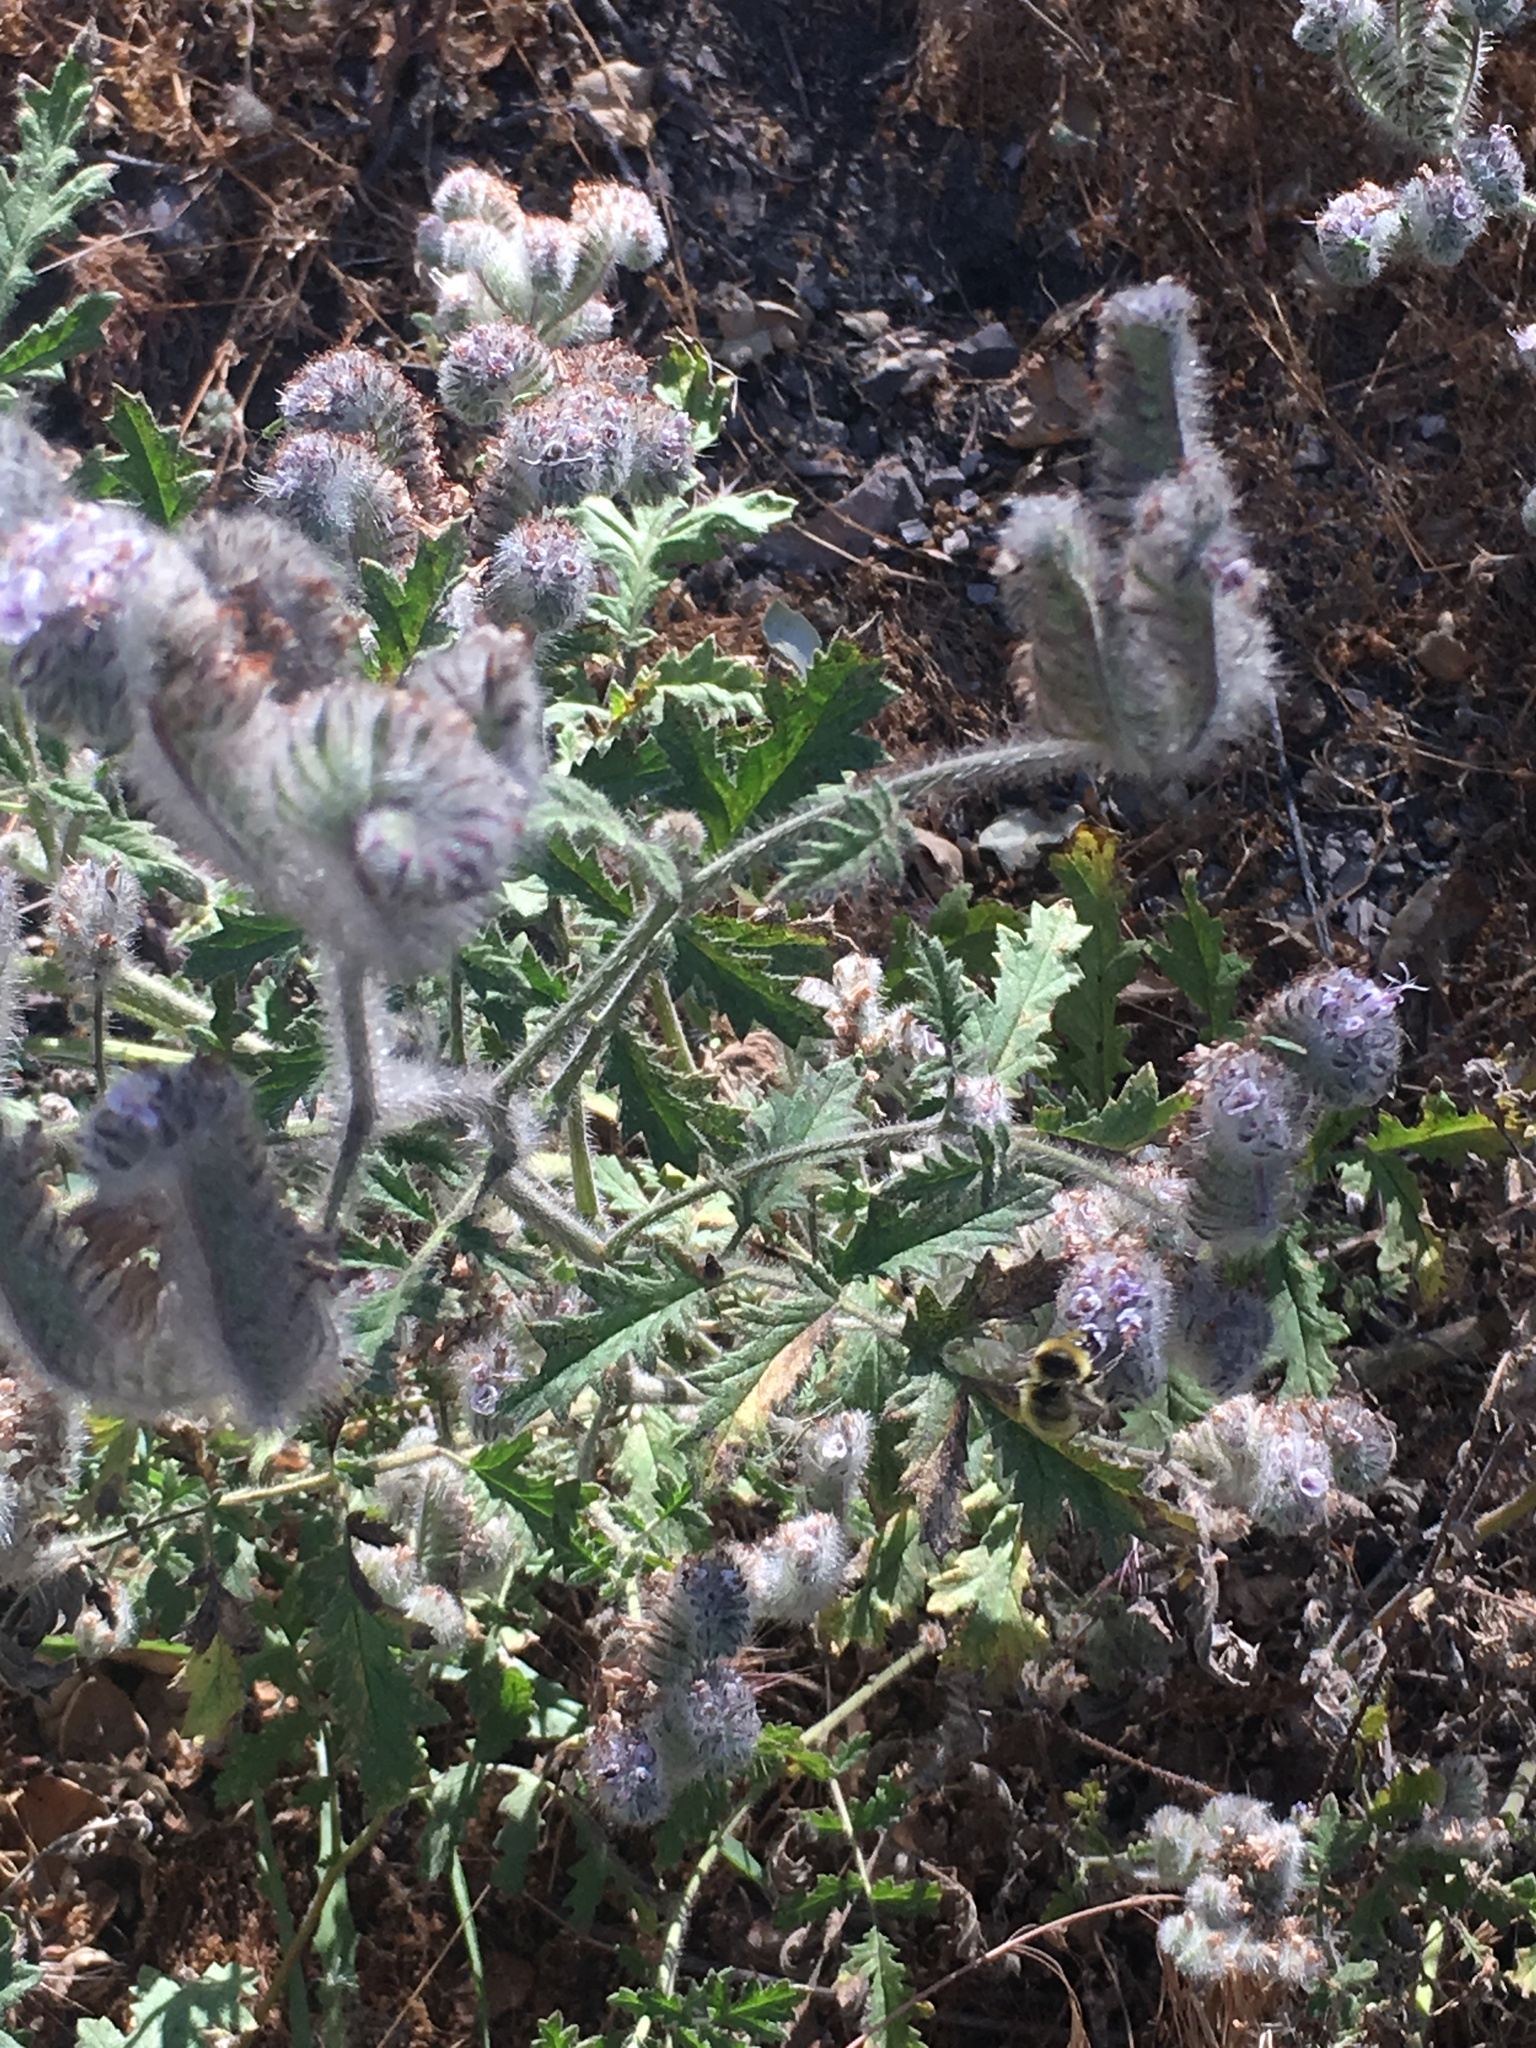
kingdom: Plantae
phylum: Tracheophyta
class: Magnoliopsida
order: Boraginales
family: Hydrophyllaceae
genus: Phacelia
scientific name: Phacelia hubbyi
